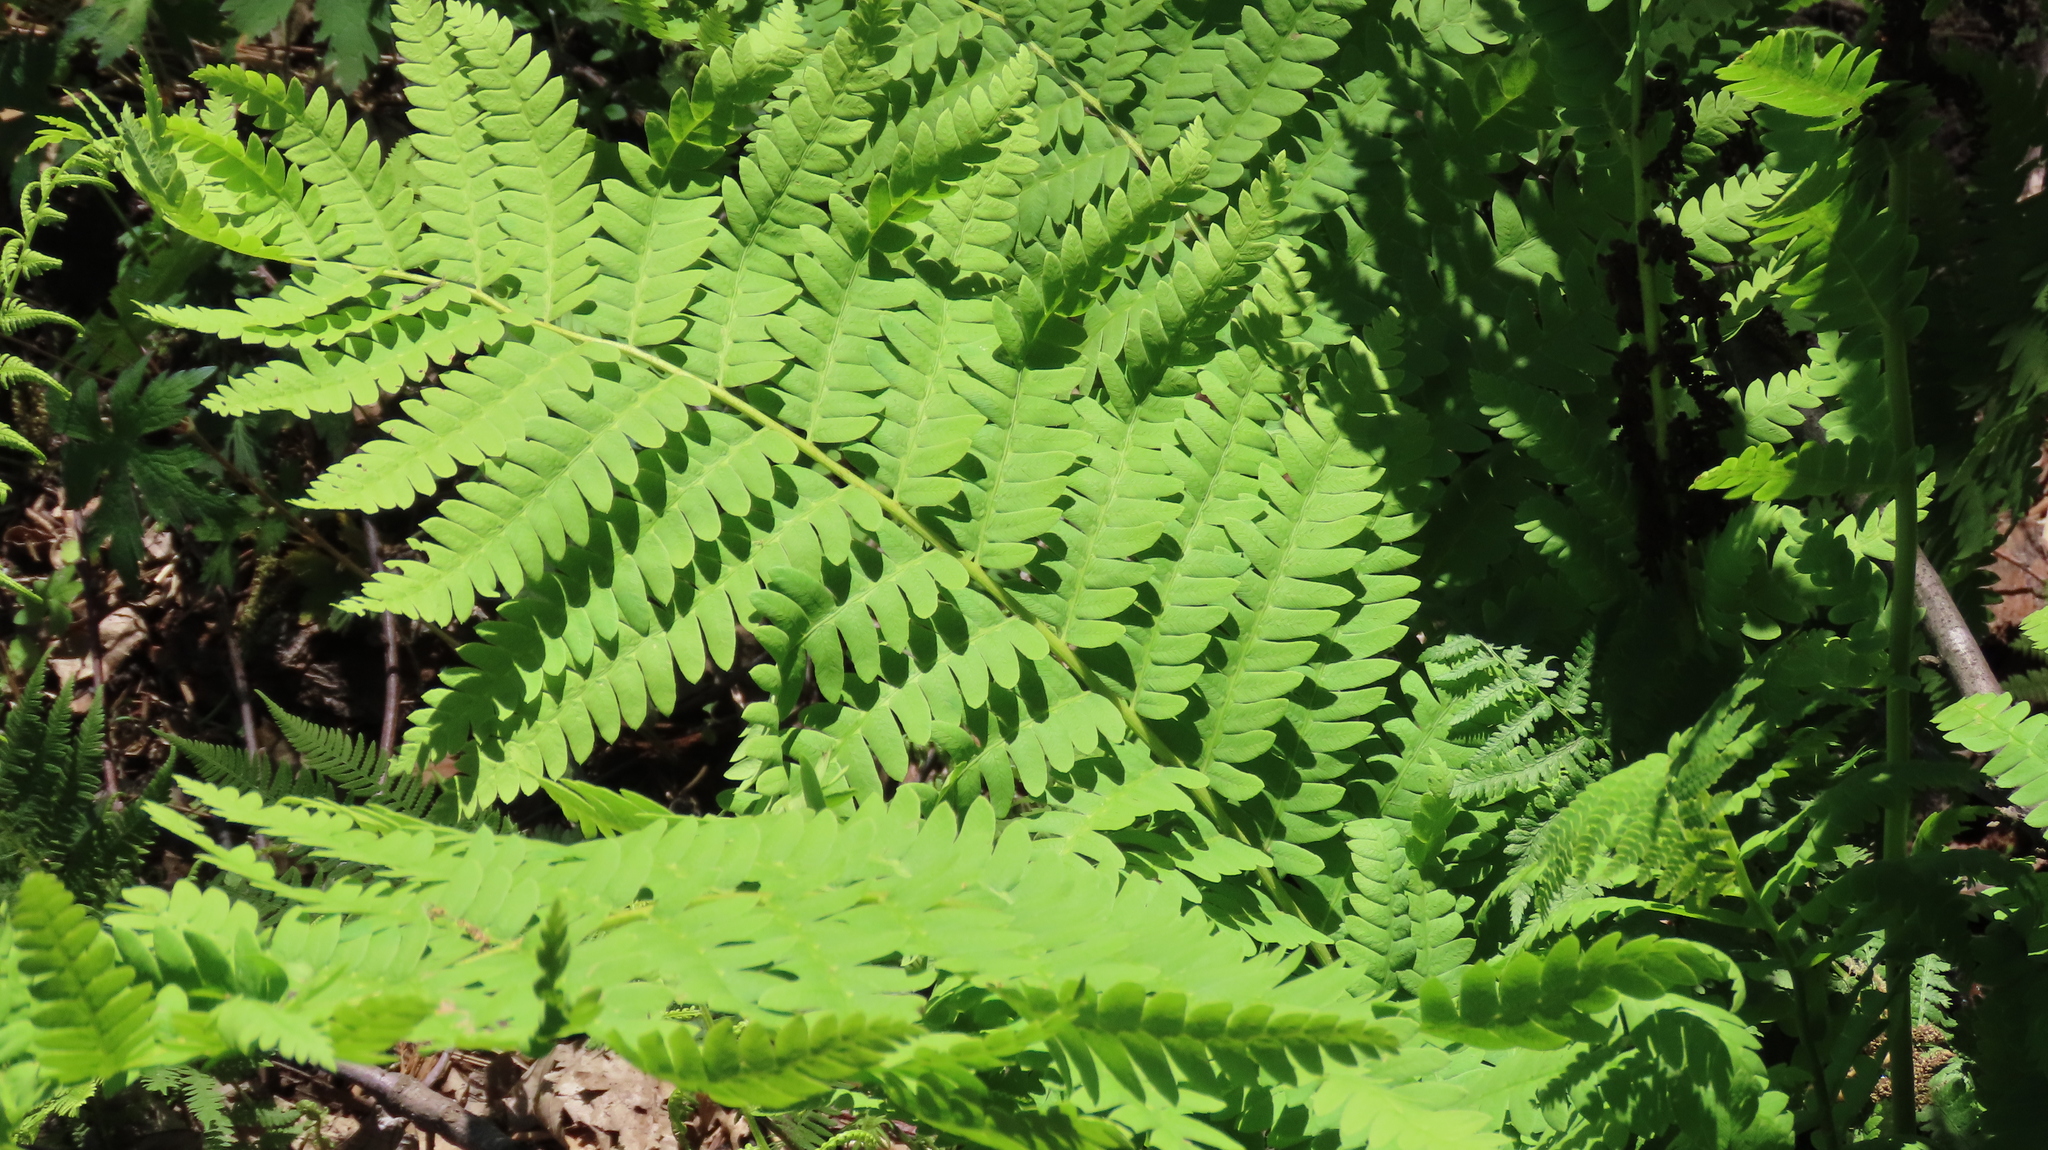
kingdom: Plantae
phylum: Tracheophyta
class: Polypodiopsida
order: Osmundales
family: Osmundaceae
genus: Claytosmunda
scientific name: Claytosmunda claytoniana
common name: Clayton's fern
